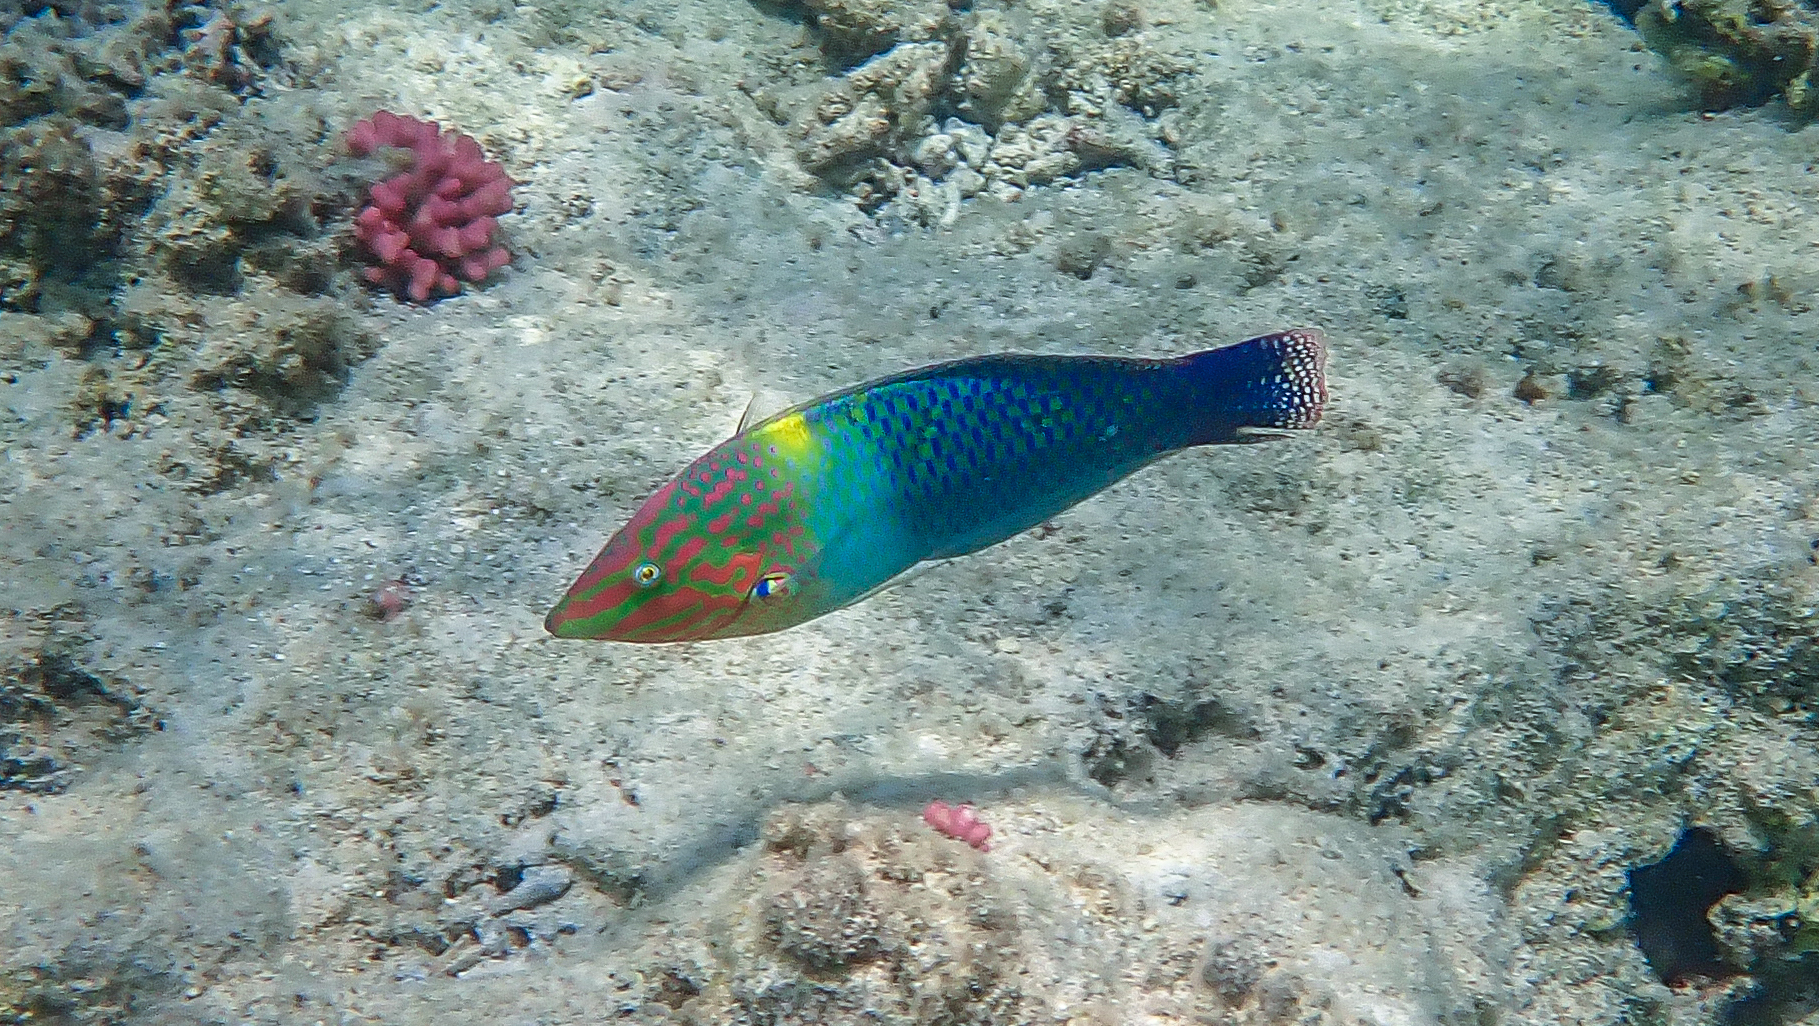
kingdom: Animalia
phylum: Chordata
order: Perciformes
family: Labridae
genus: Halichoeres
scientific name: Halichoeres hortulanus
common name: Checkerboard wrasse
